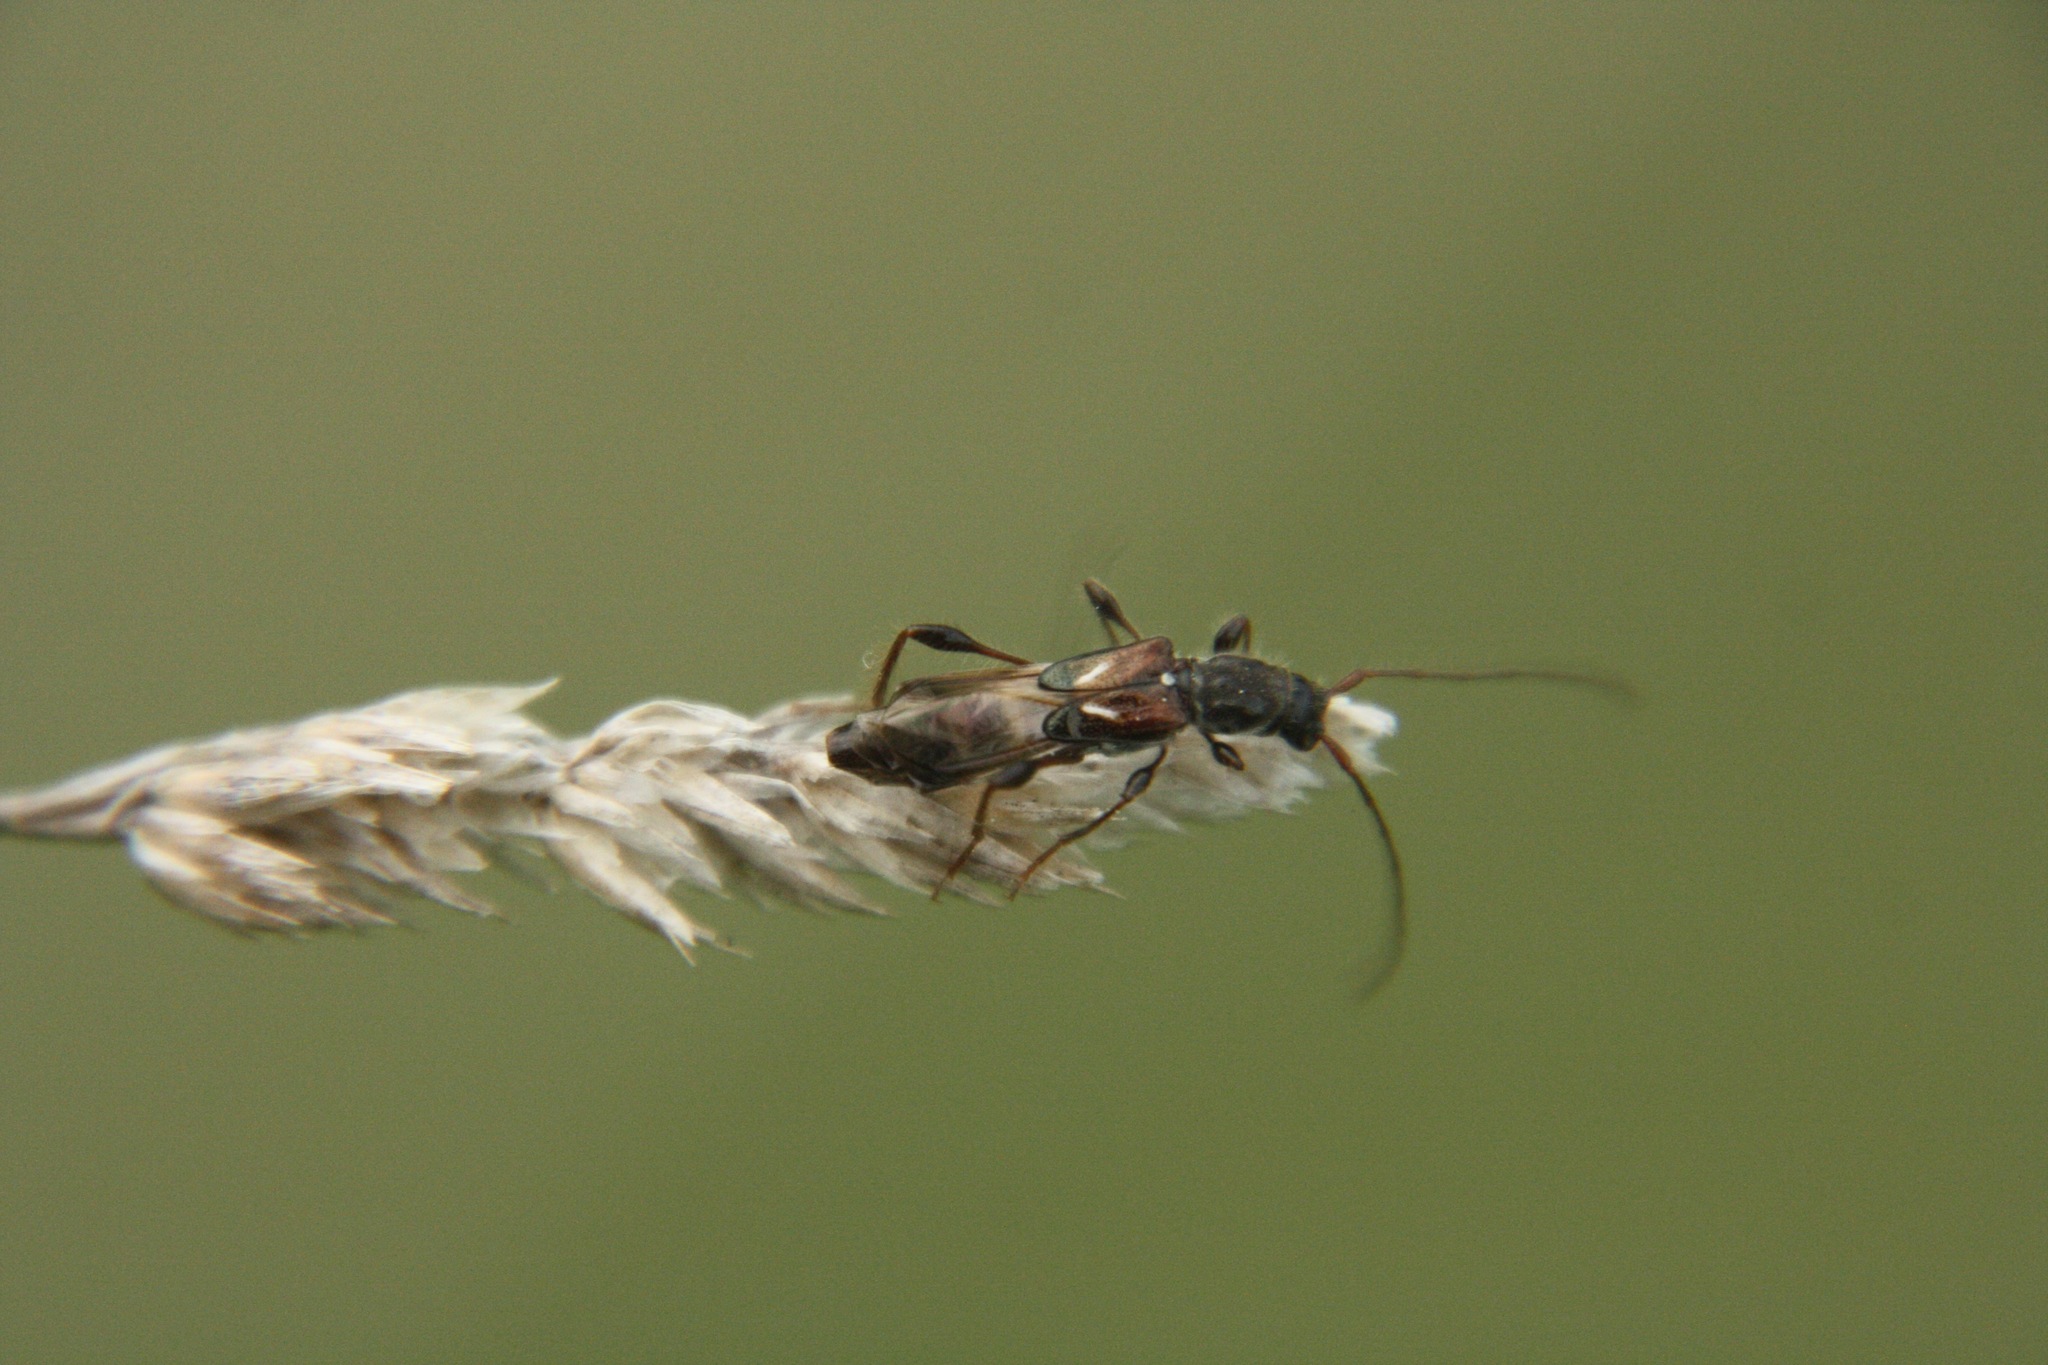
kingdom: Animalia
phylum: Arthropoda
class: Insecta
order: Coleoptera
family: Cerambycidae
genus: Molorchus
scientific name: Molorchus minor
